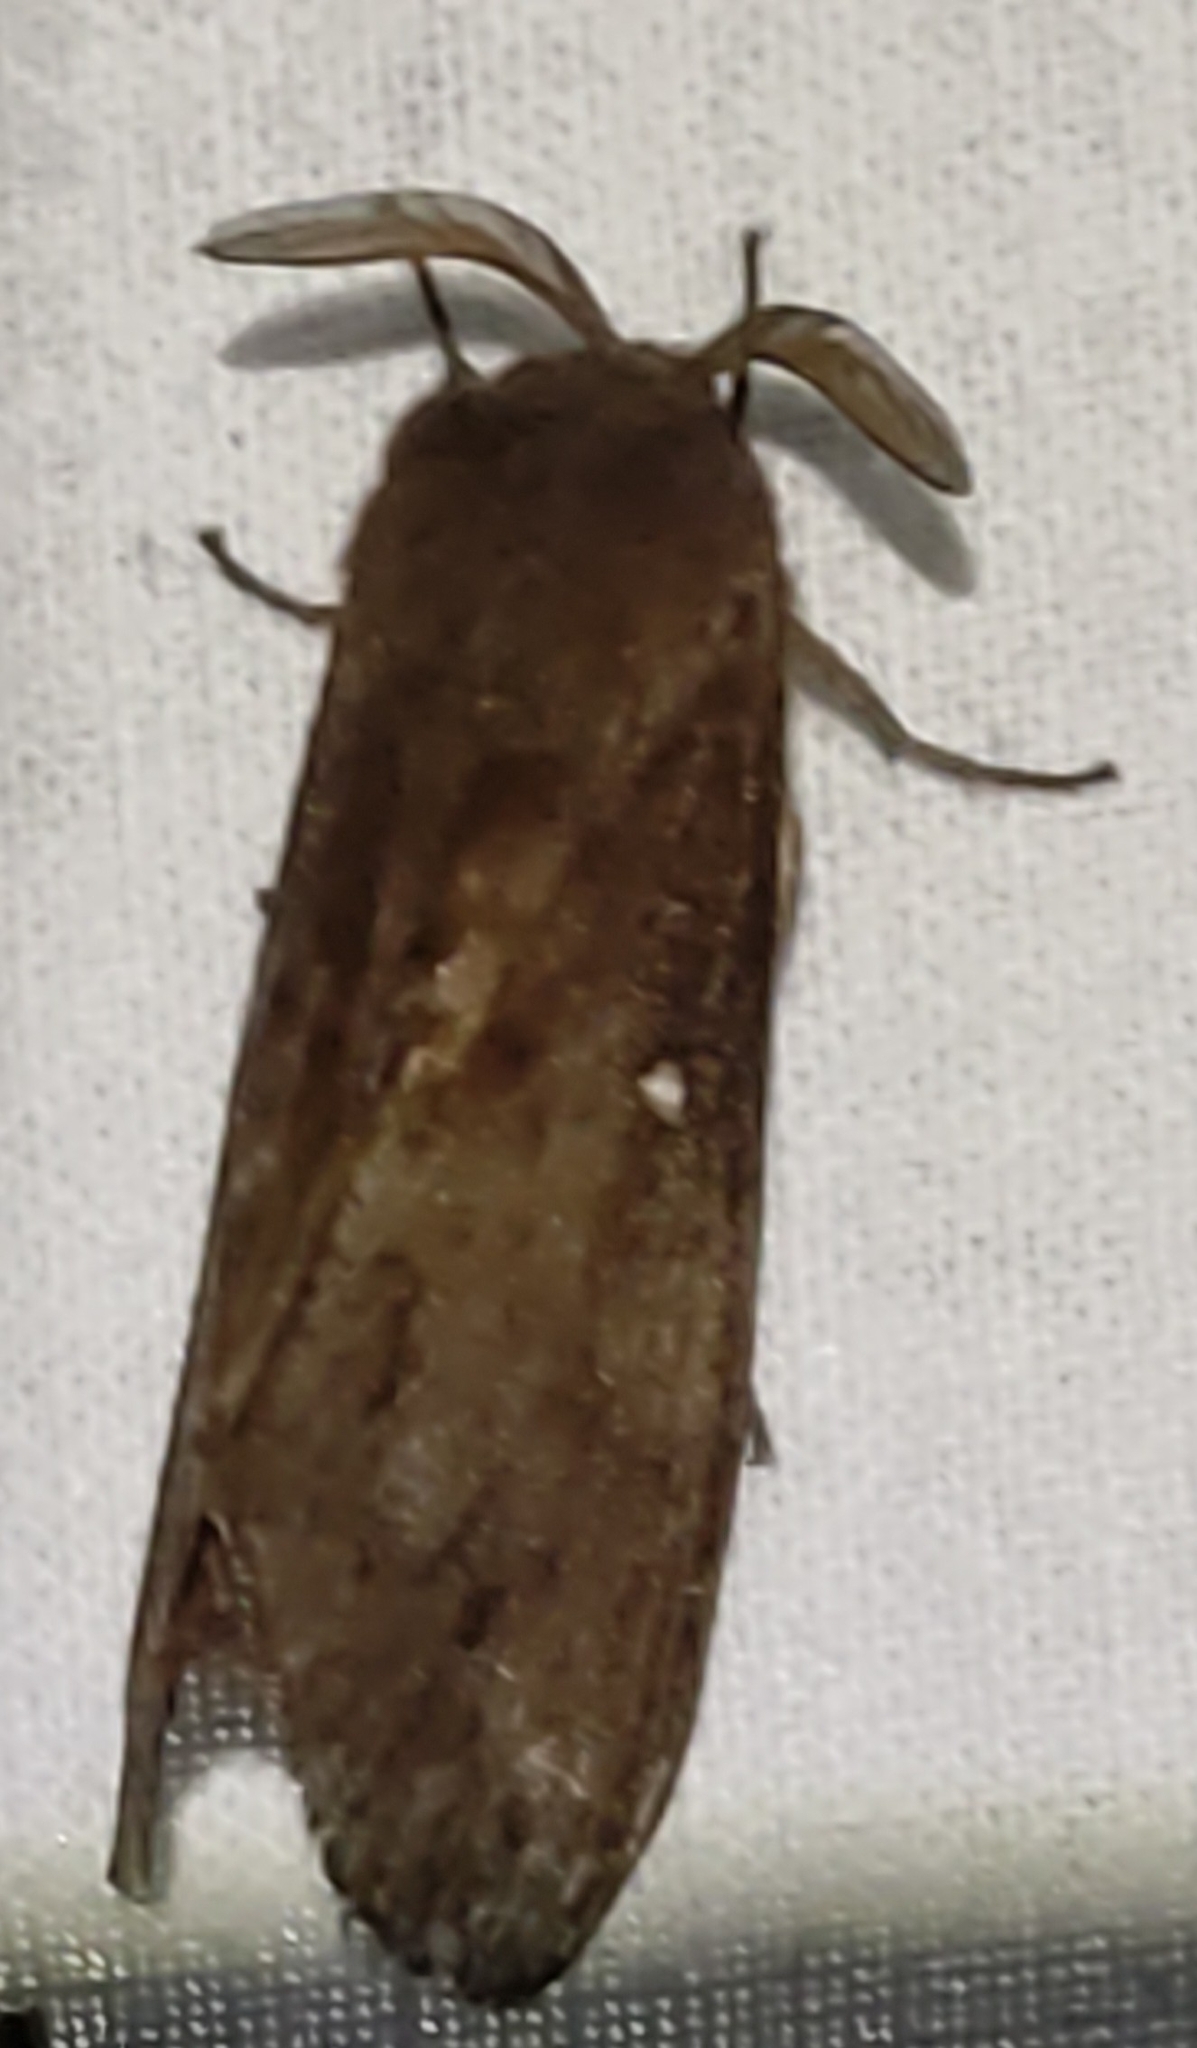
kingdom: Animalia
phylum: Arthropoda
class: Insecta
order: Lepidoptera
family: Lasiocampidae
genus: Dendrolimus
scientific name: Dendrolimus pini
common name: Pine-tree lappet
